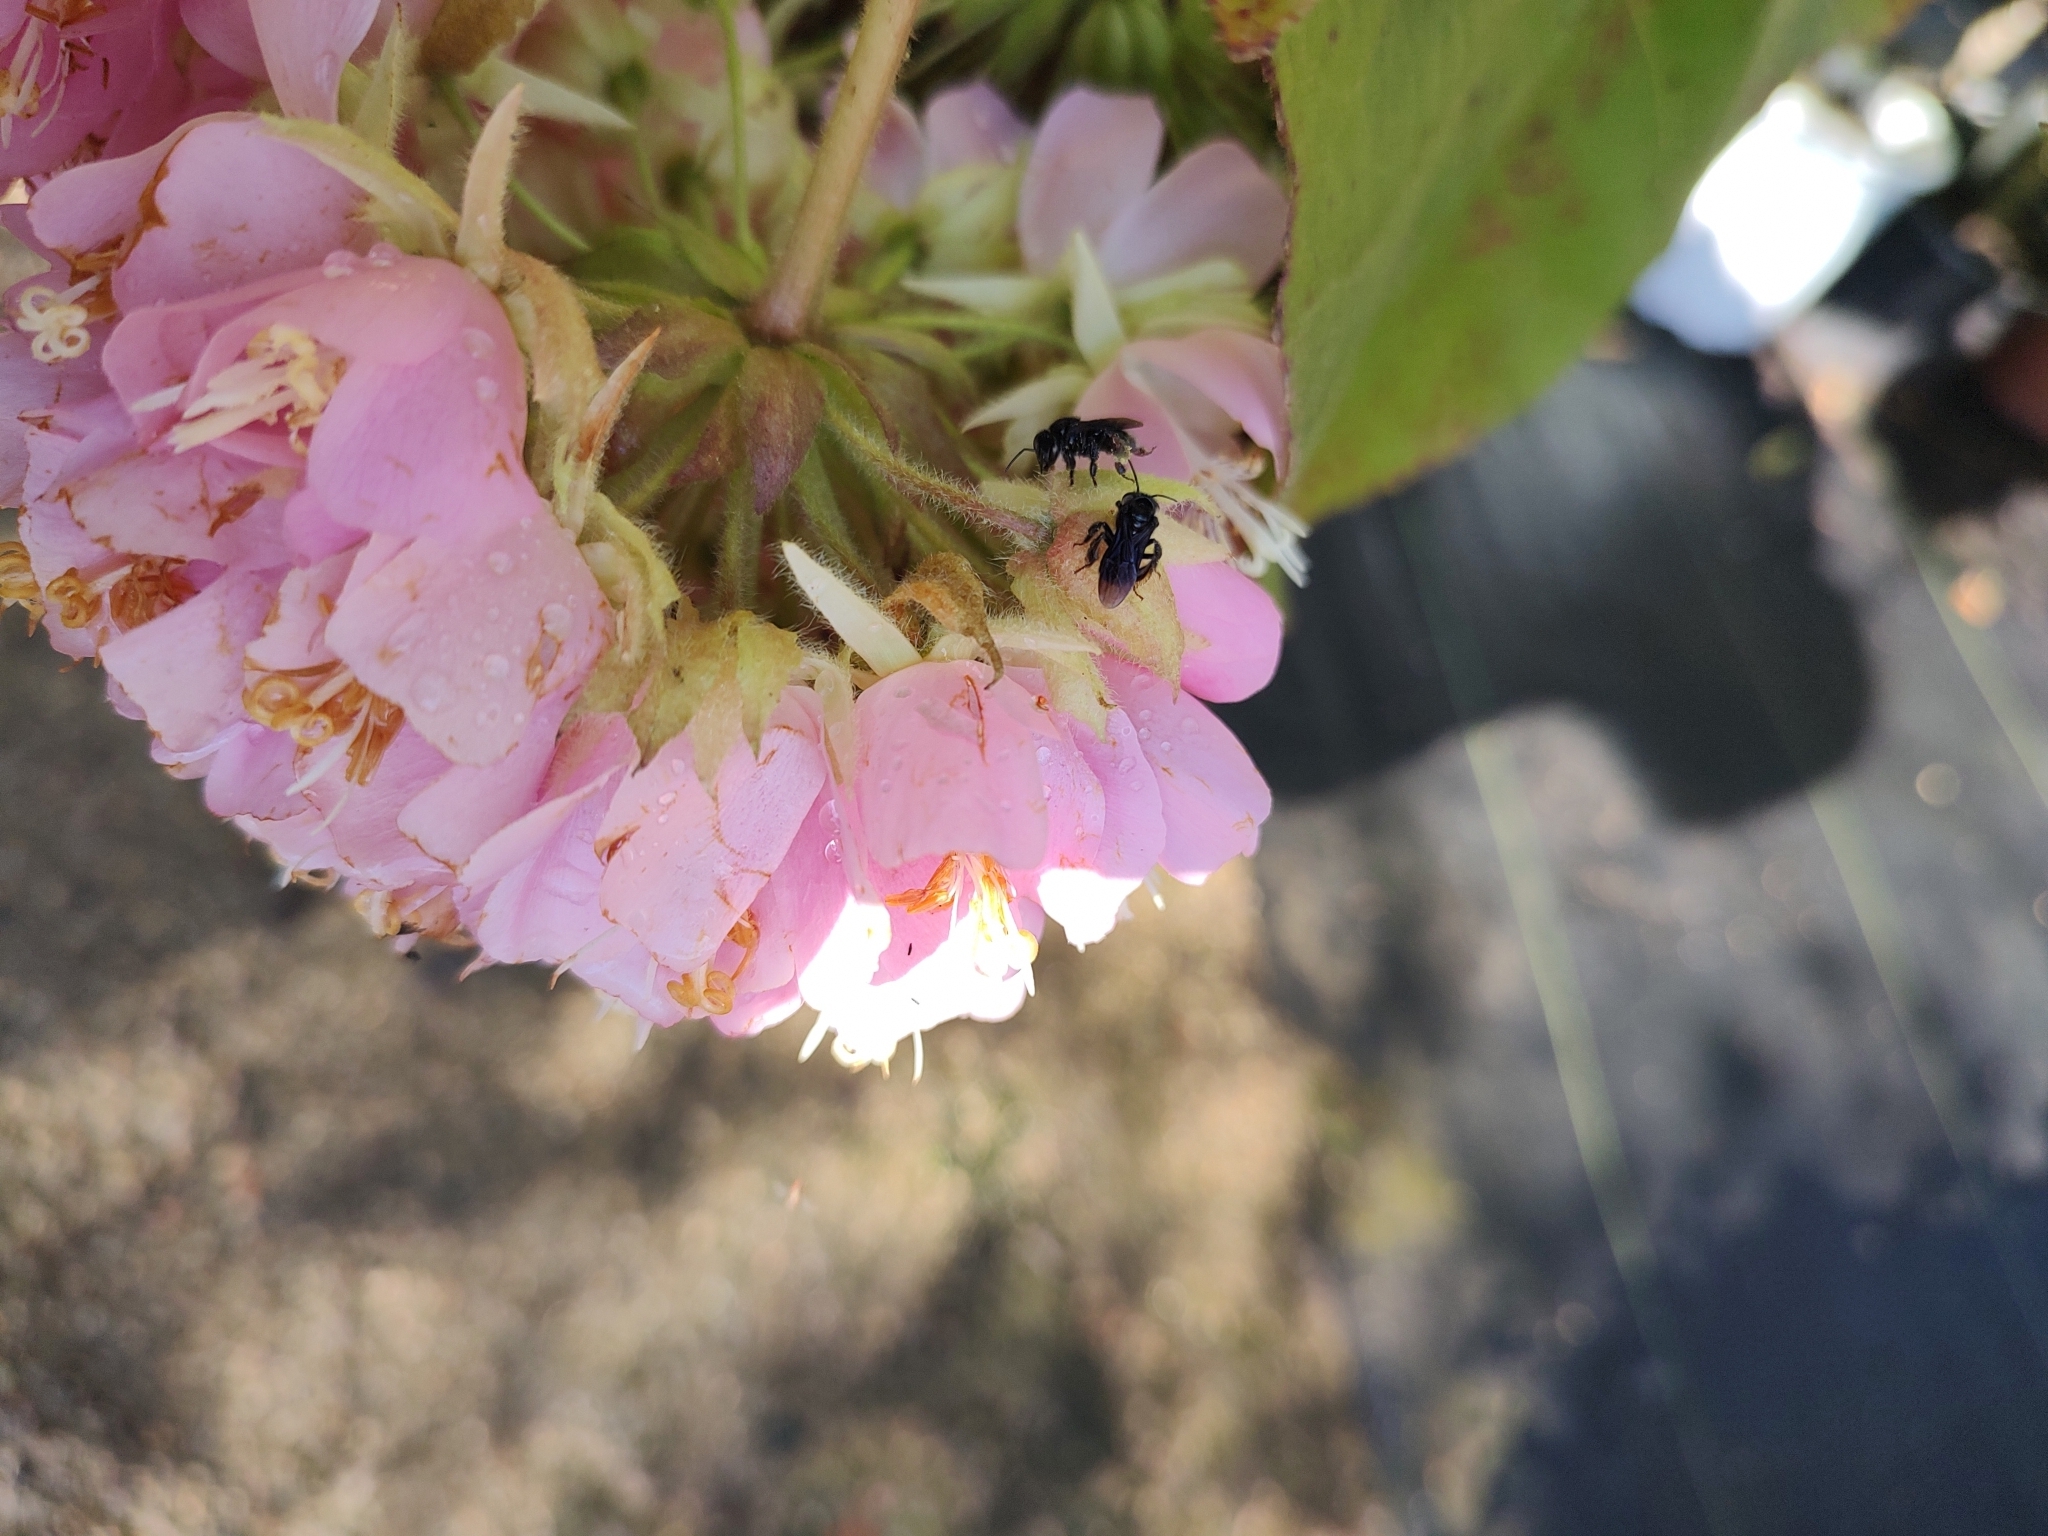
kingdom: Animalia
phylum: Arthropoda
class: Insecta
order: Hymenoptera
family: Apidae
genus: Trigona
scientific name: Trigona spinipes
